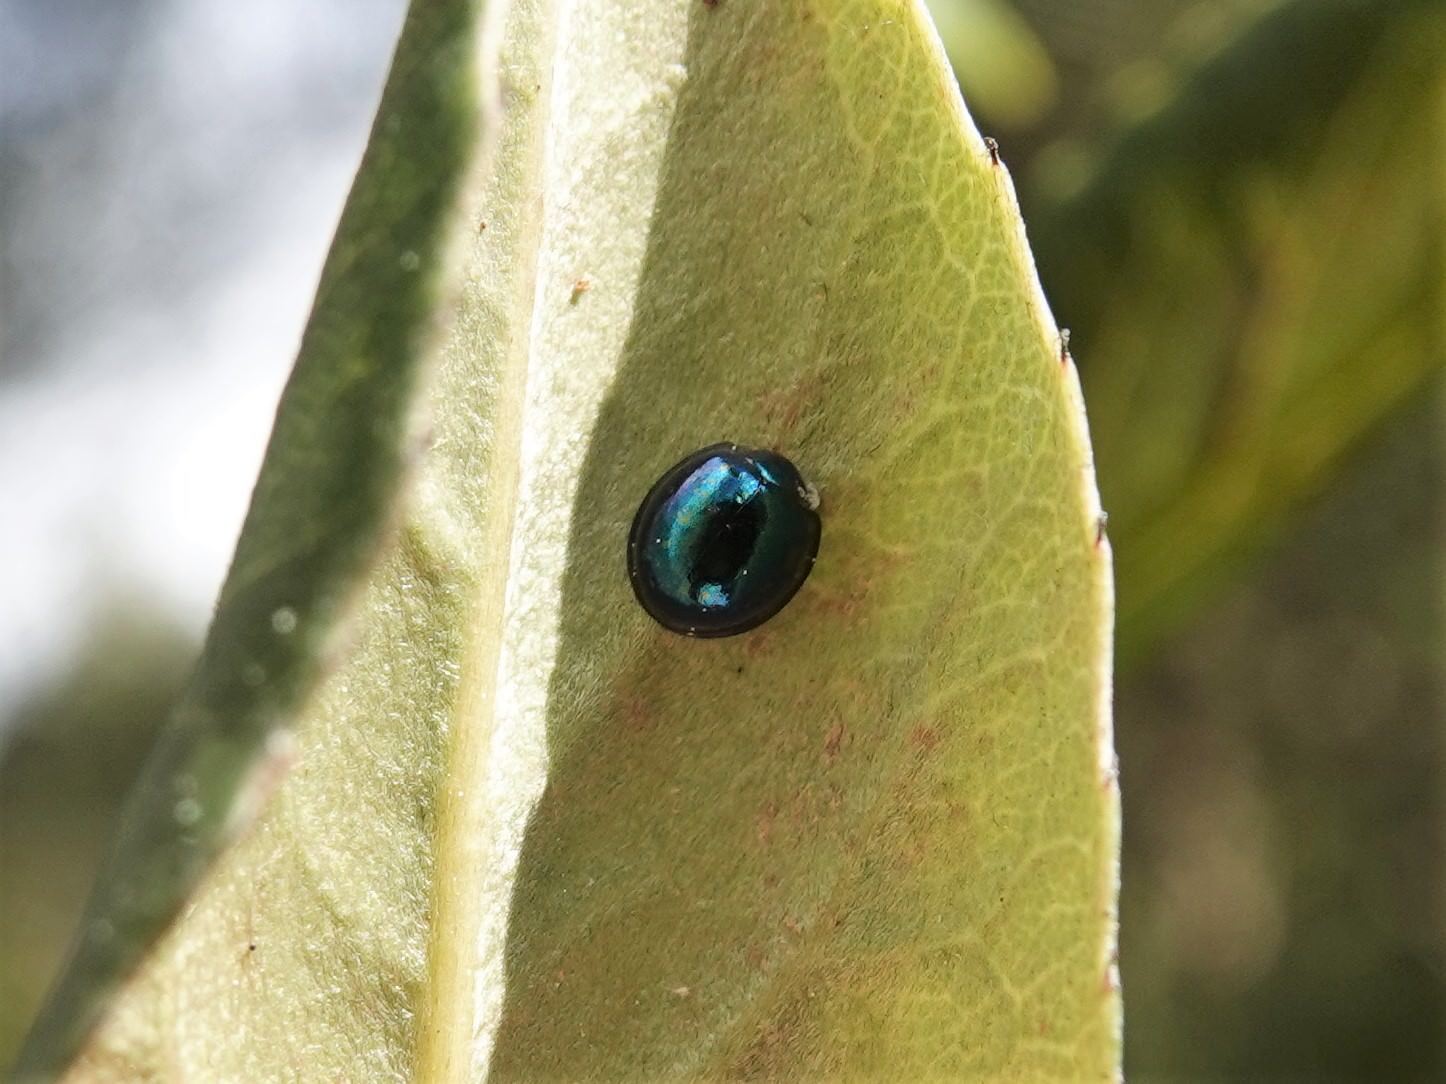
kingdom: Animalia
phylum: Arthropoda
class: Insecta
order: Coleoptera
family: Coccinellidae
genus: Halmus
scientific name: Halmus chalybeus
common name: Steel blue ladybird beetle
